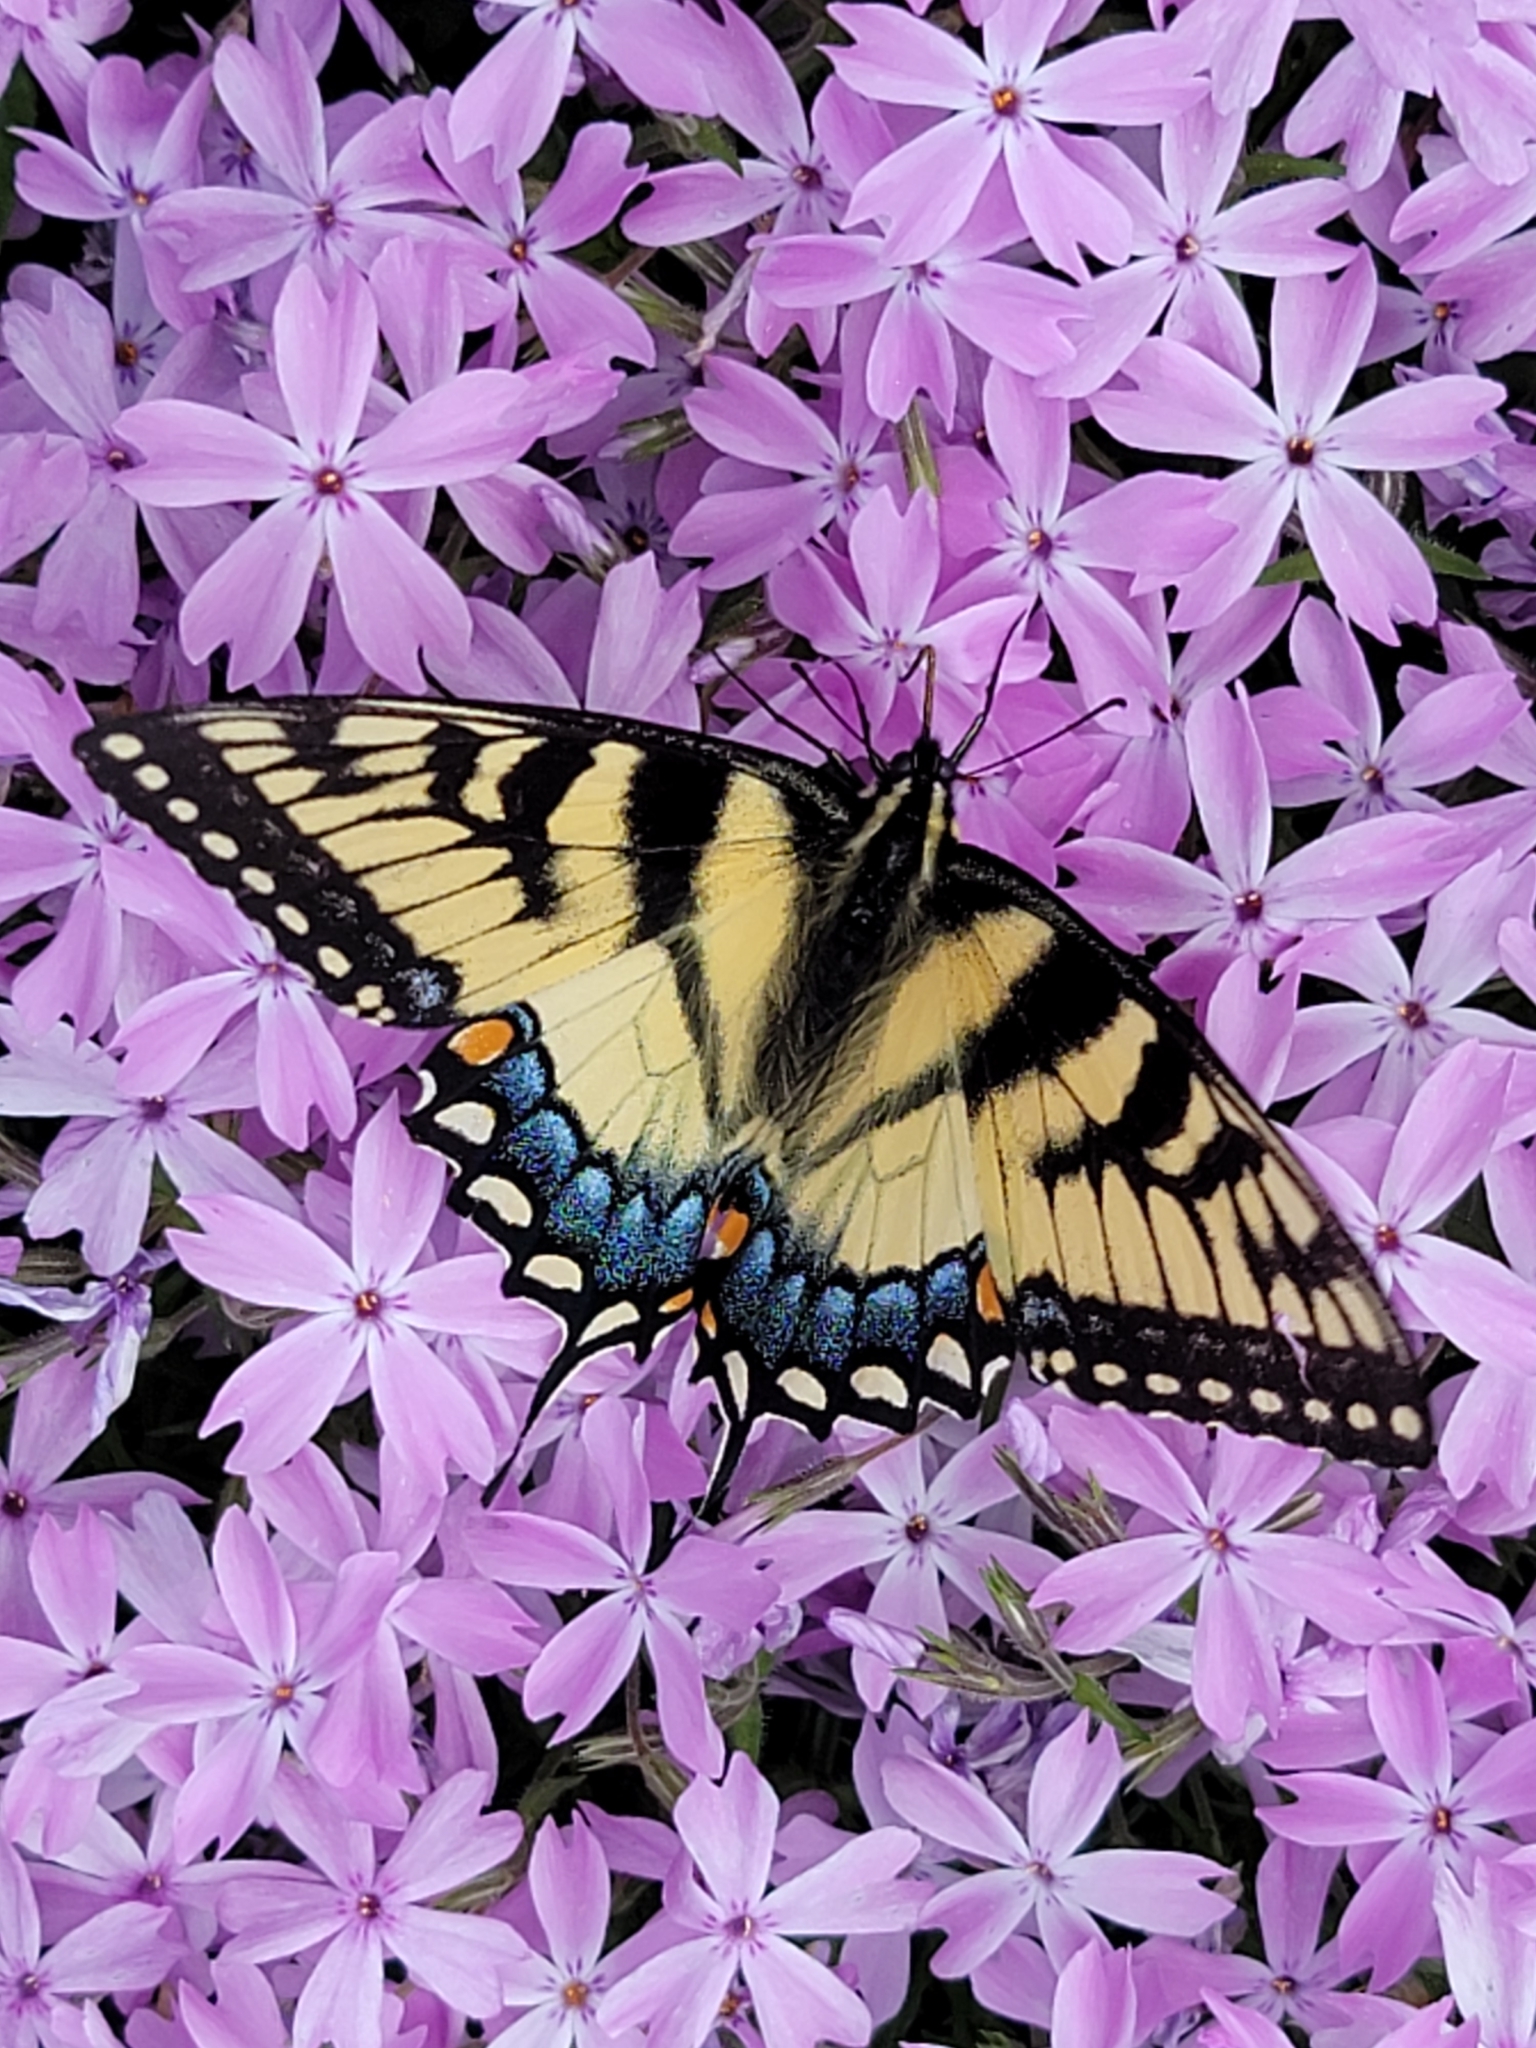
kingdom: Animalia
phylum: Arthropoda
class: Insecta
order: Lepidoptera
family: Papilionidae
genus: Papilio
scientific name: Papilio glaucus
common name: Tiger swallowtail
